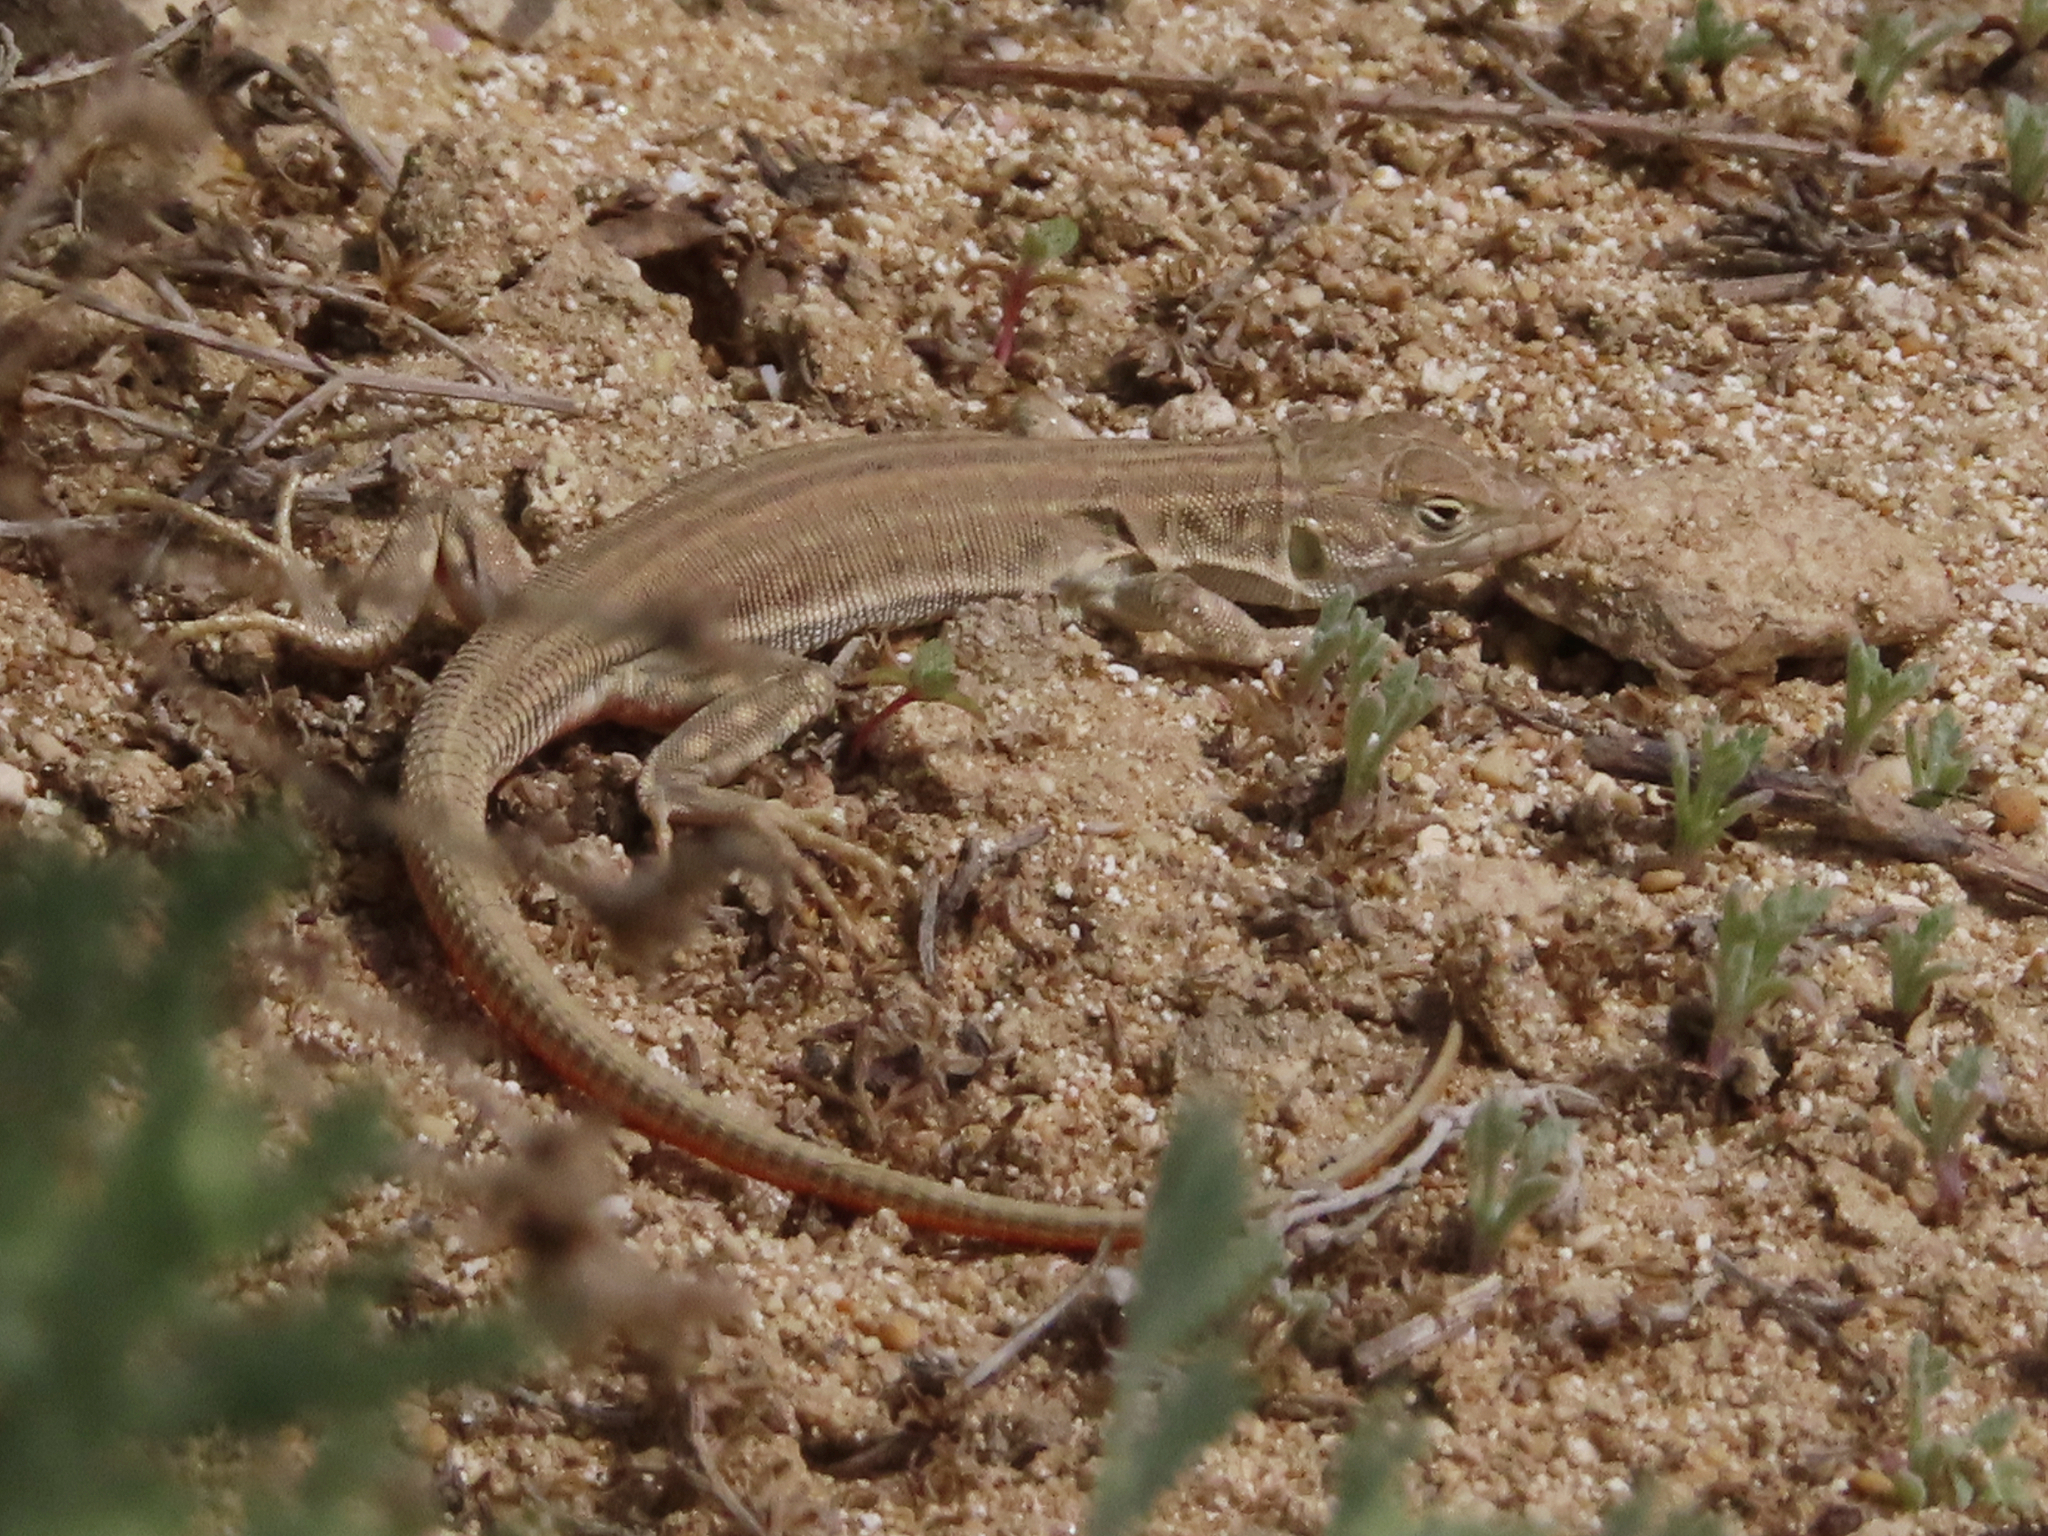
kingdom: Animalia
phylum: Chordata
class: Squamata
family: Lacertidae
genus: Eremias
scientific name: Eremias velox
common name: Central asian racerunner
